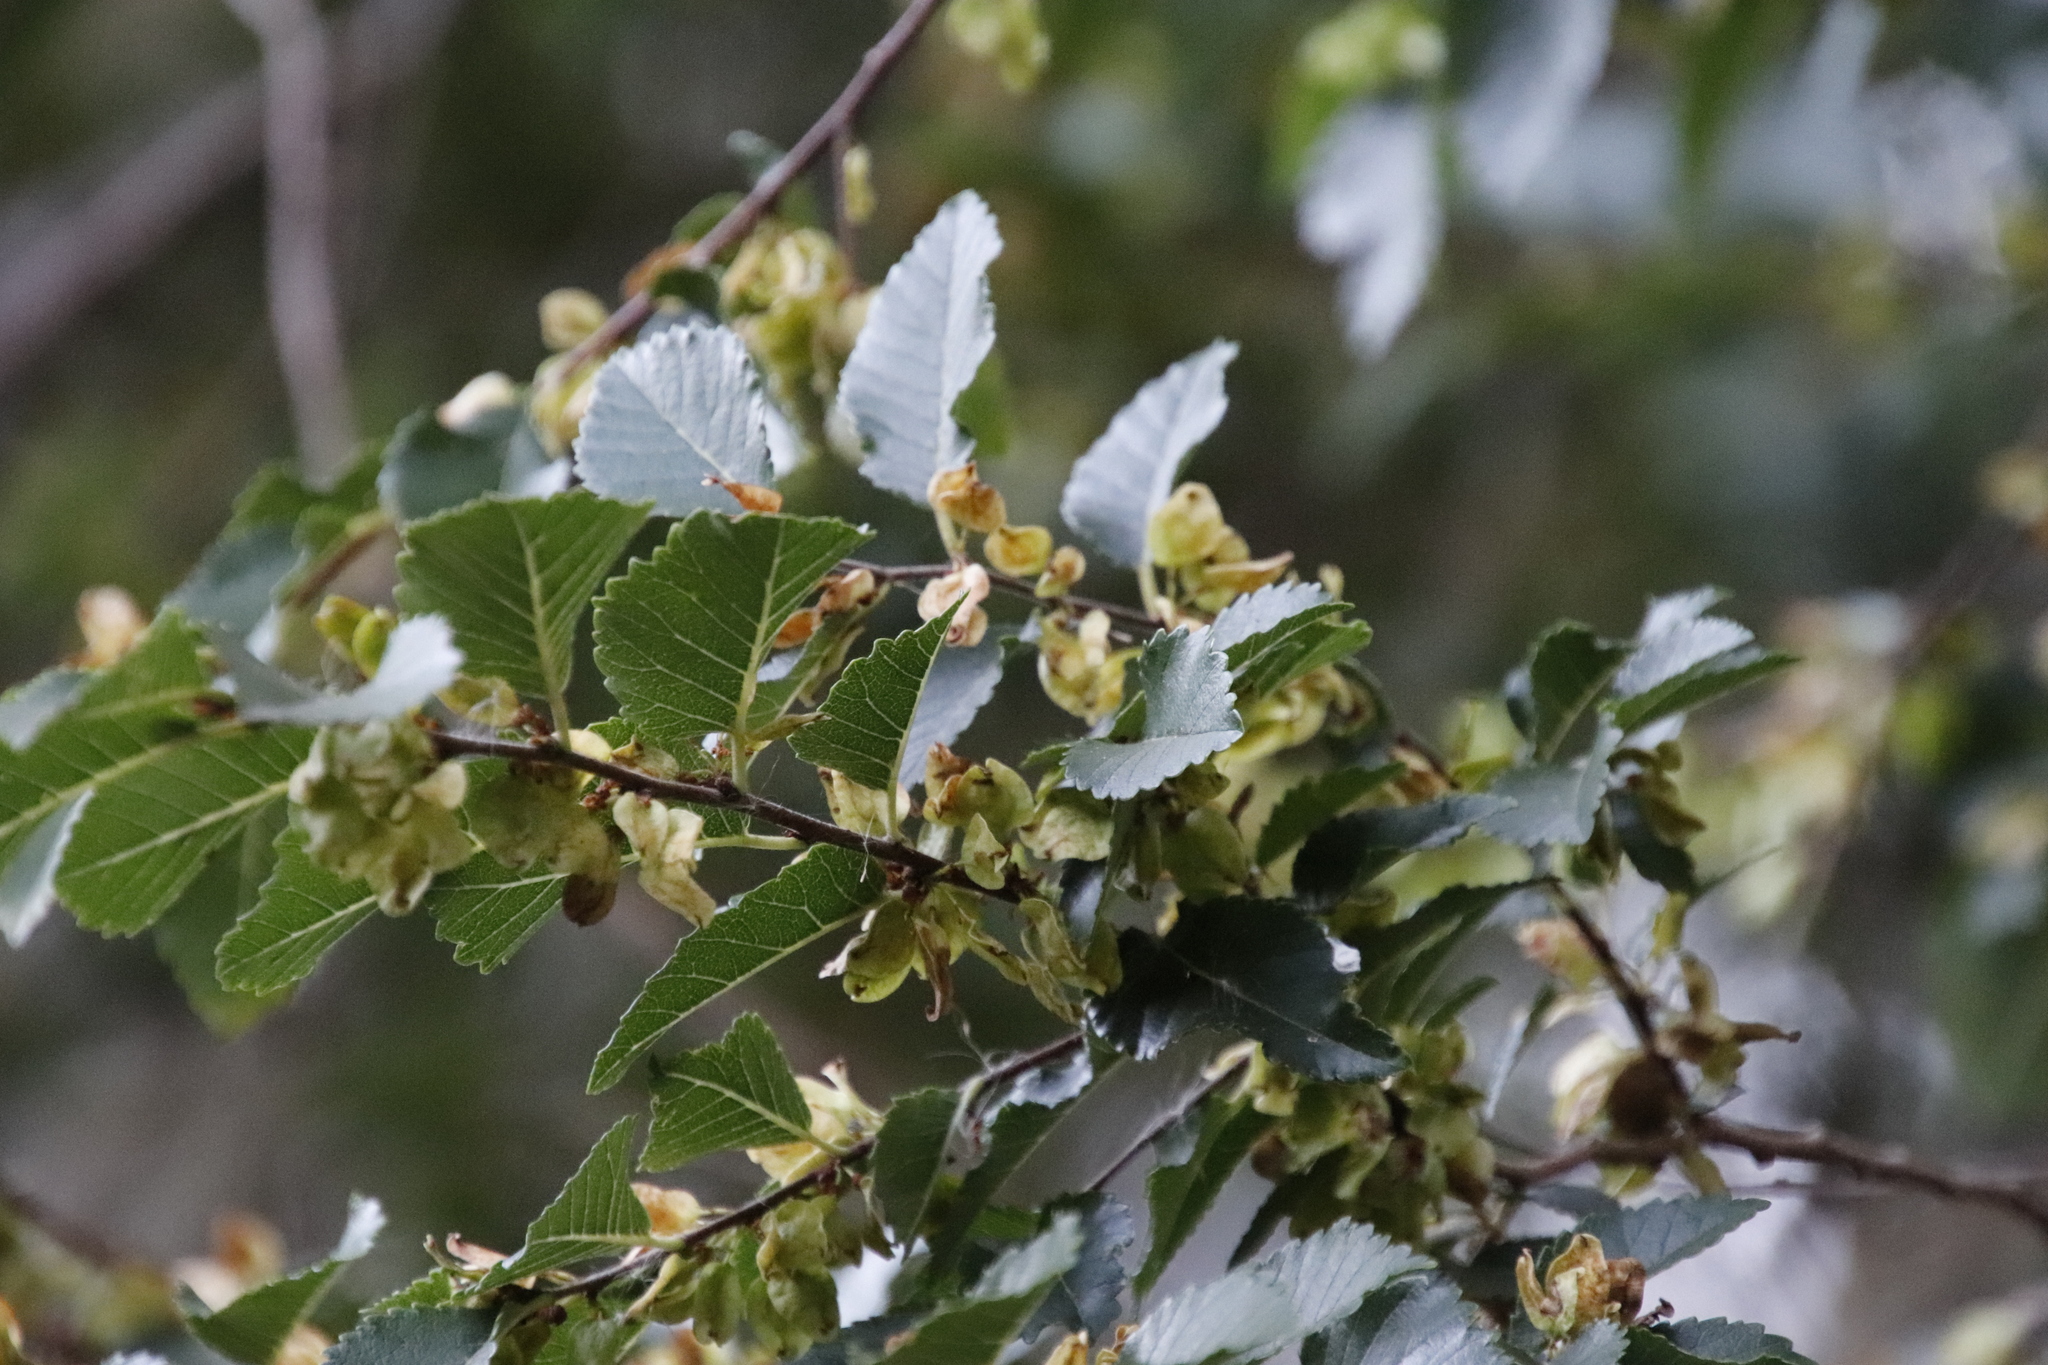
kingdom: Plantae
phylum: Tracheophyta
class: Magnoliopsida
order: Rosales
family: Ulmaceae
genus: Ulmus
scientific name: Ulmus parvifolia
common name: Chinese elm
